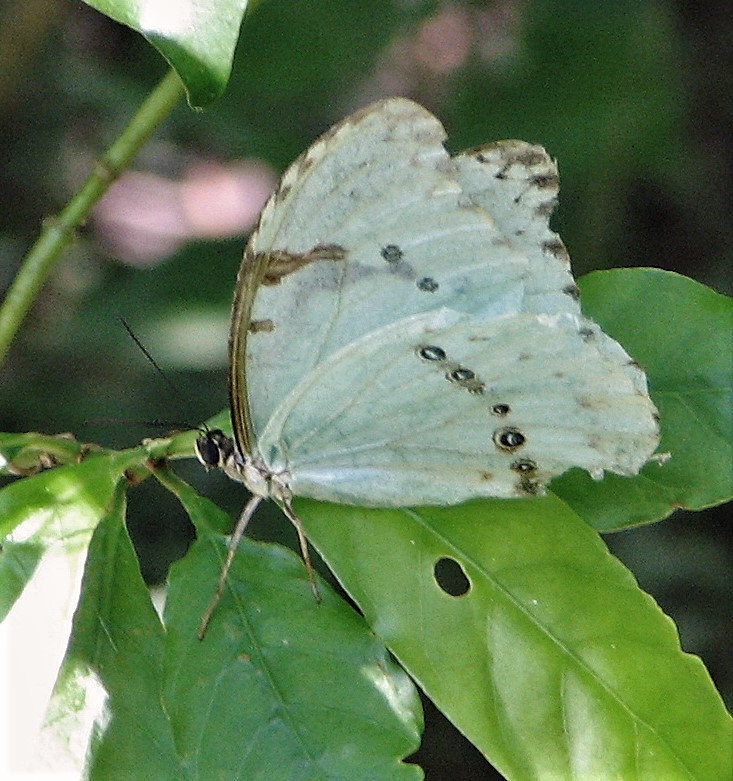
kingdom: Animalia
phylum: Arthropoda
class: Insecta
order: Lepidoptera
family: Nymphalidae
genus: Morpho
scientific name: Morpho epistrophus
